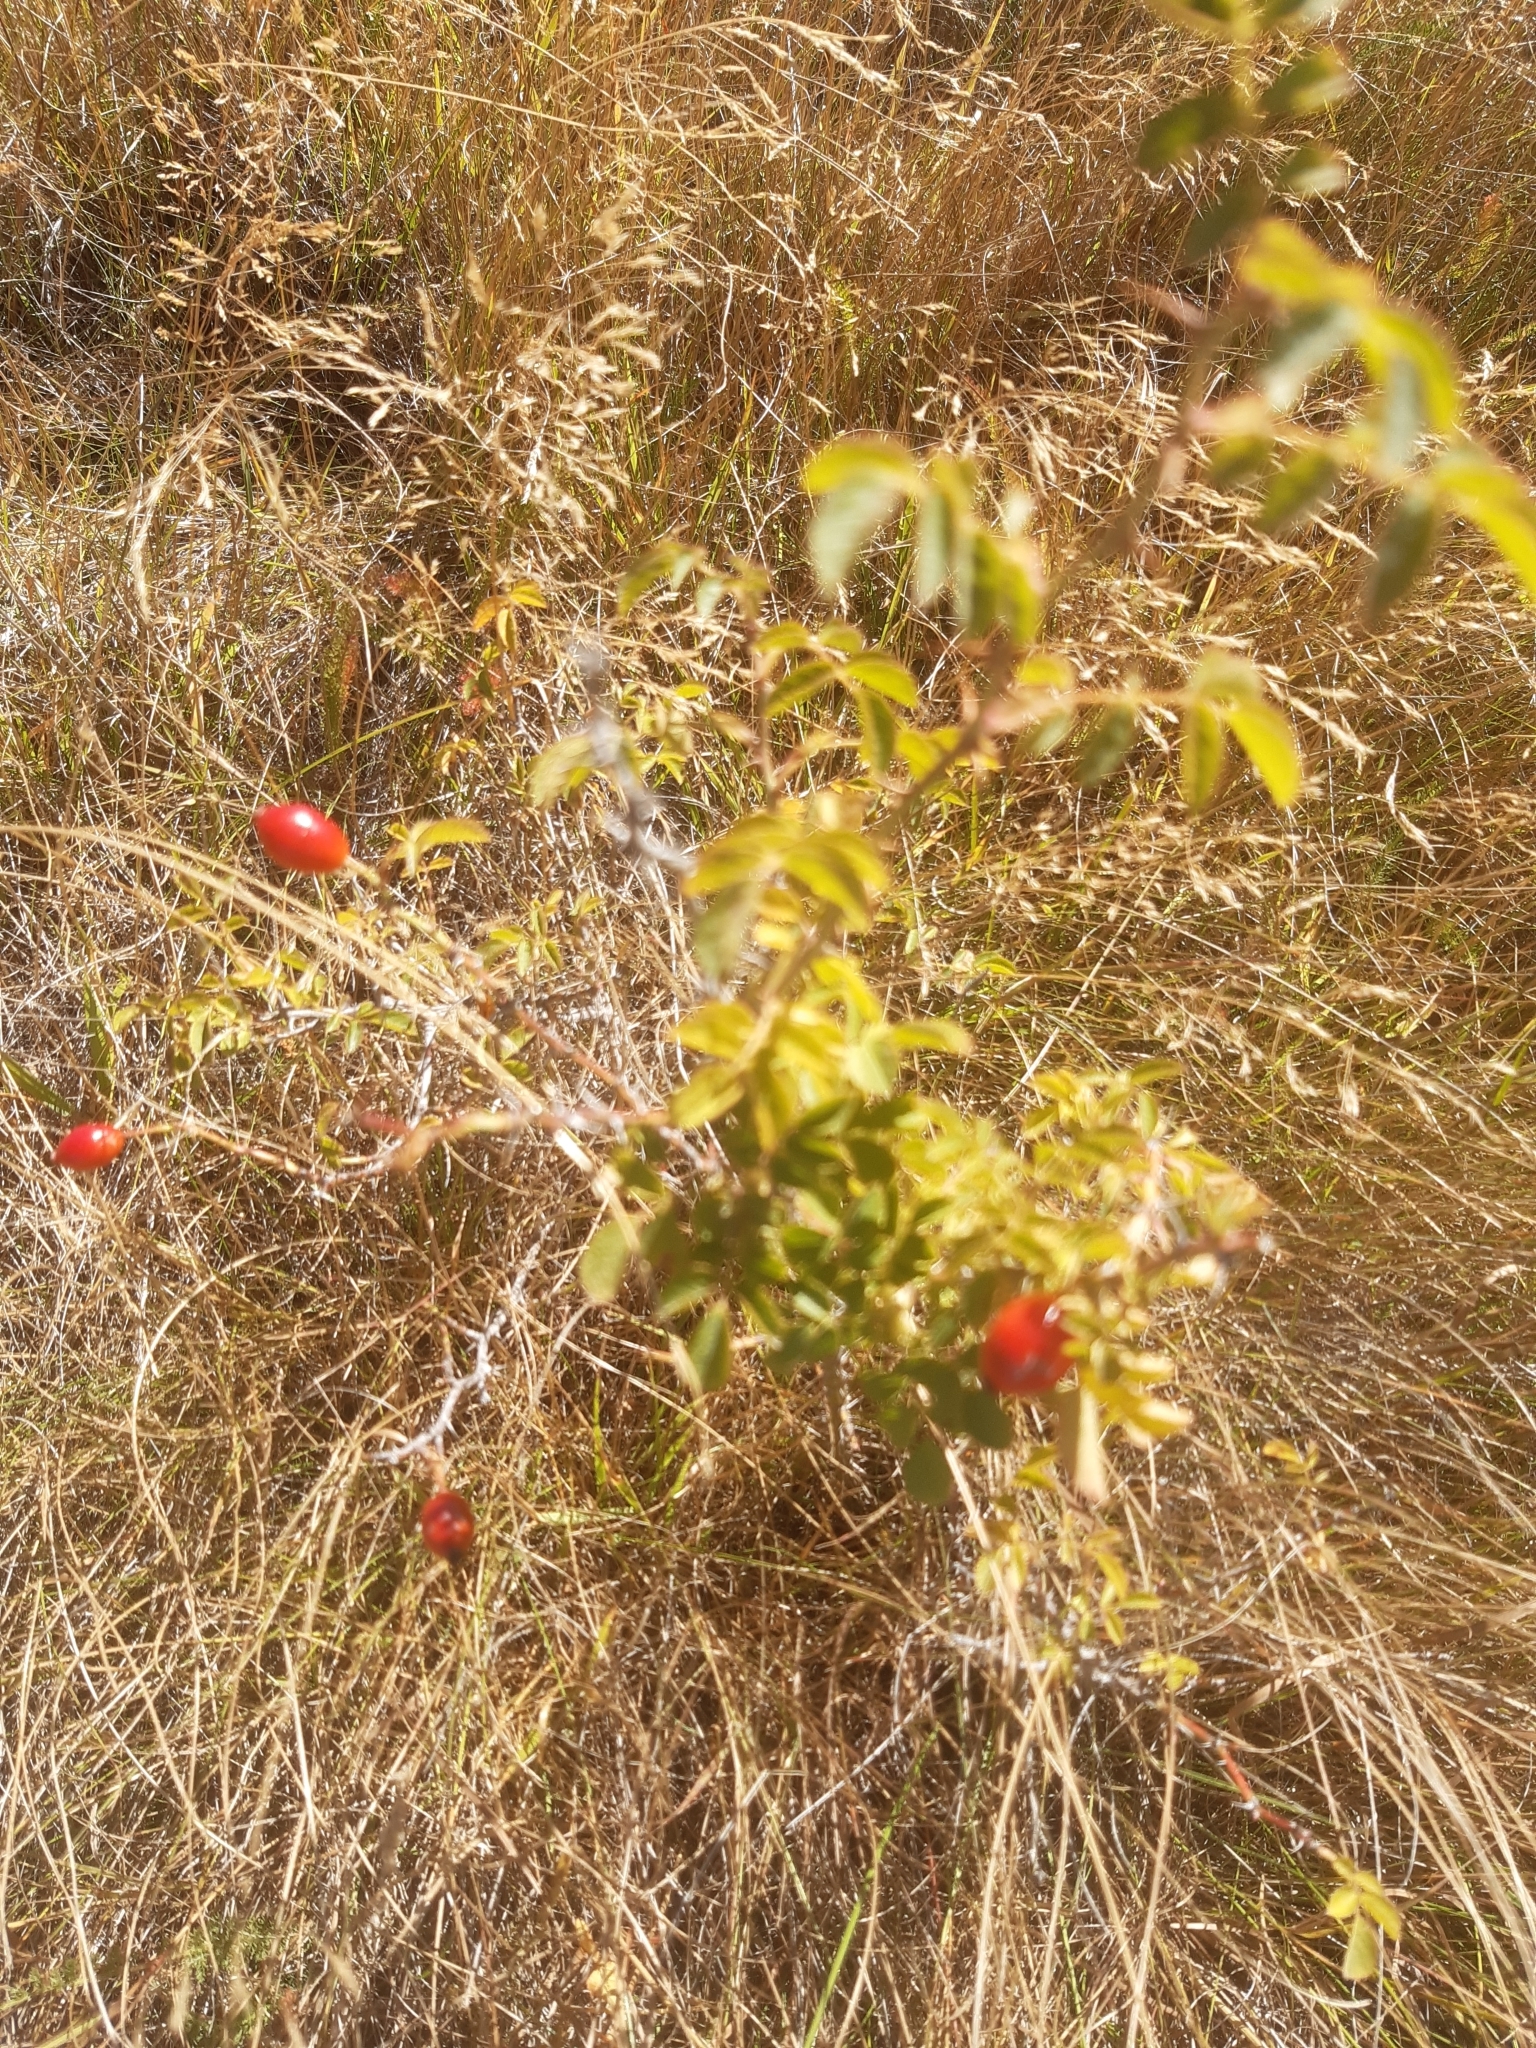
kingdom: Plantae
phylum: Tracheophyta
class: Magnoliopsida
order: Rosales
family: Rosaceae
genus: Rosa
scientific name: Rosa rubiginosa
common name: Sweet-briar
